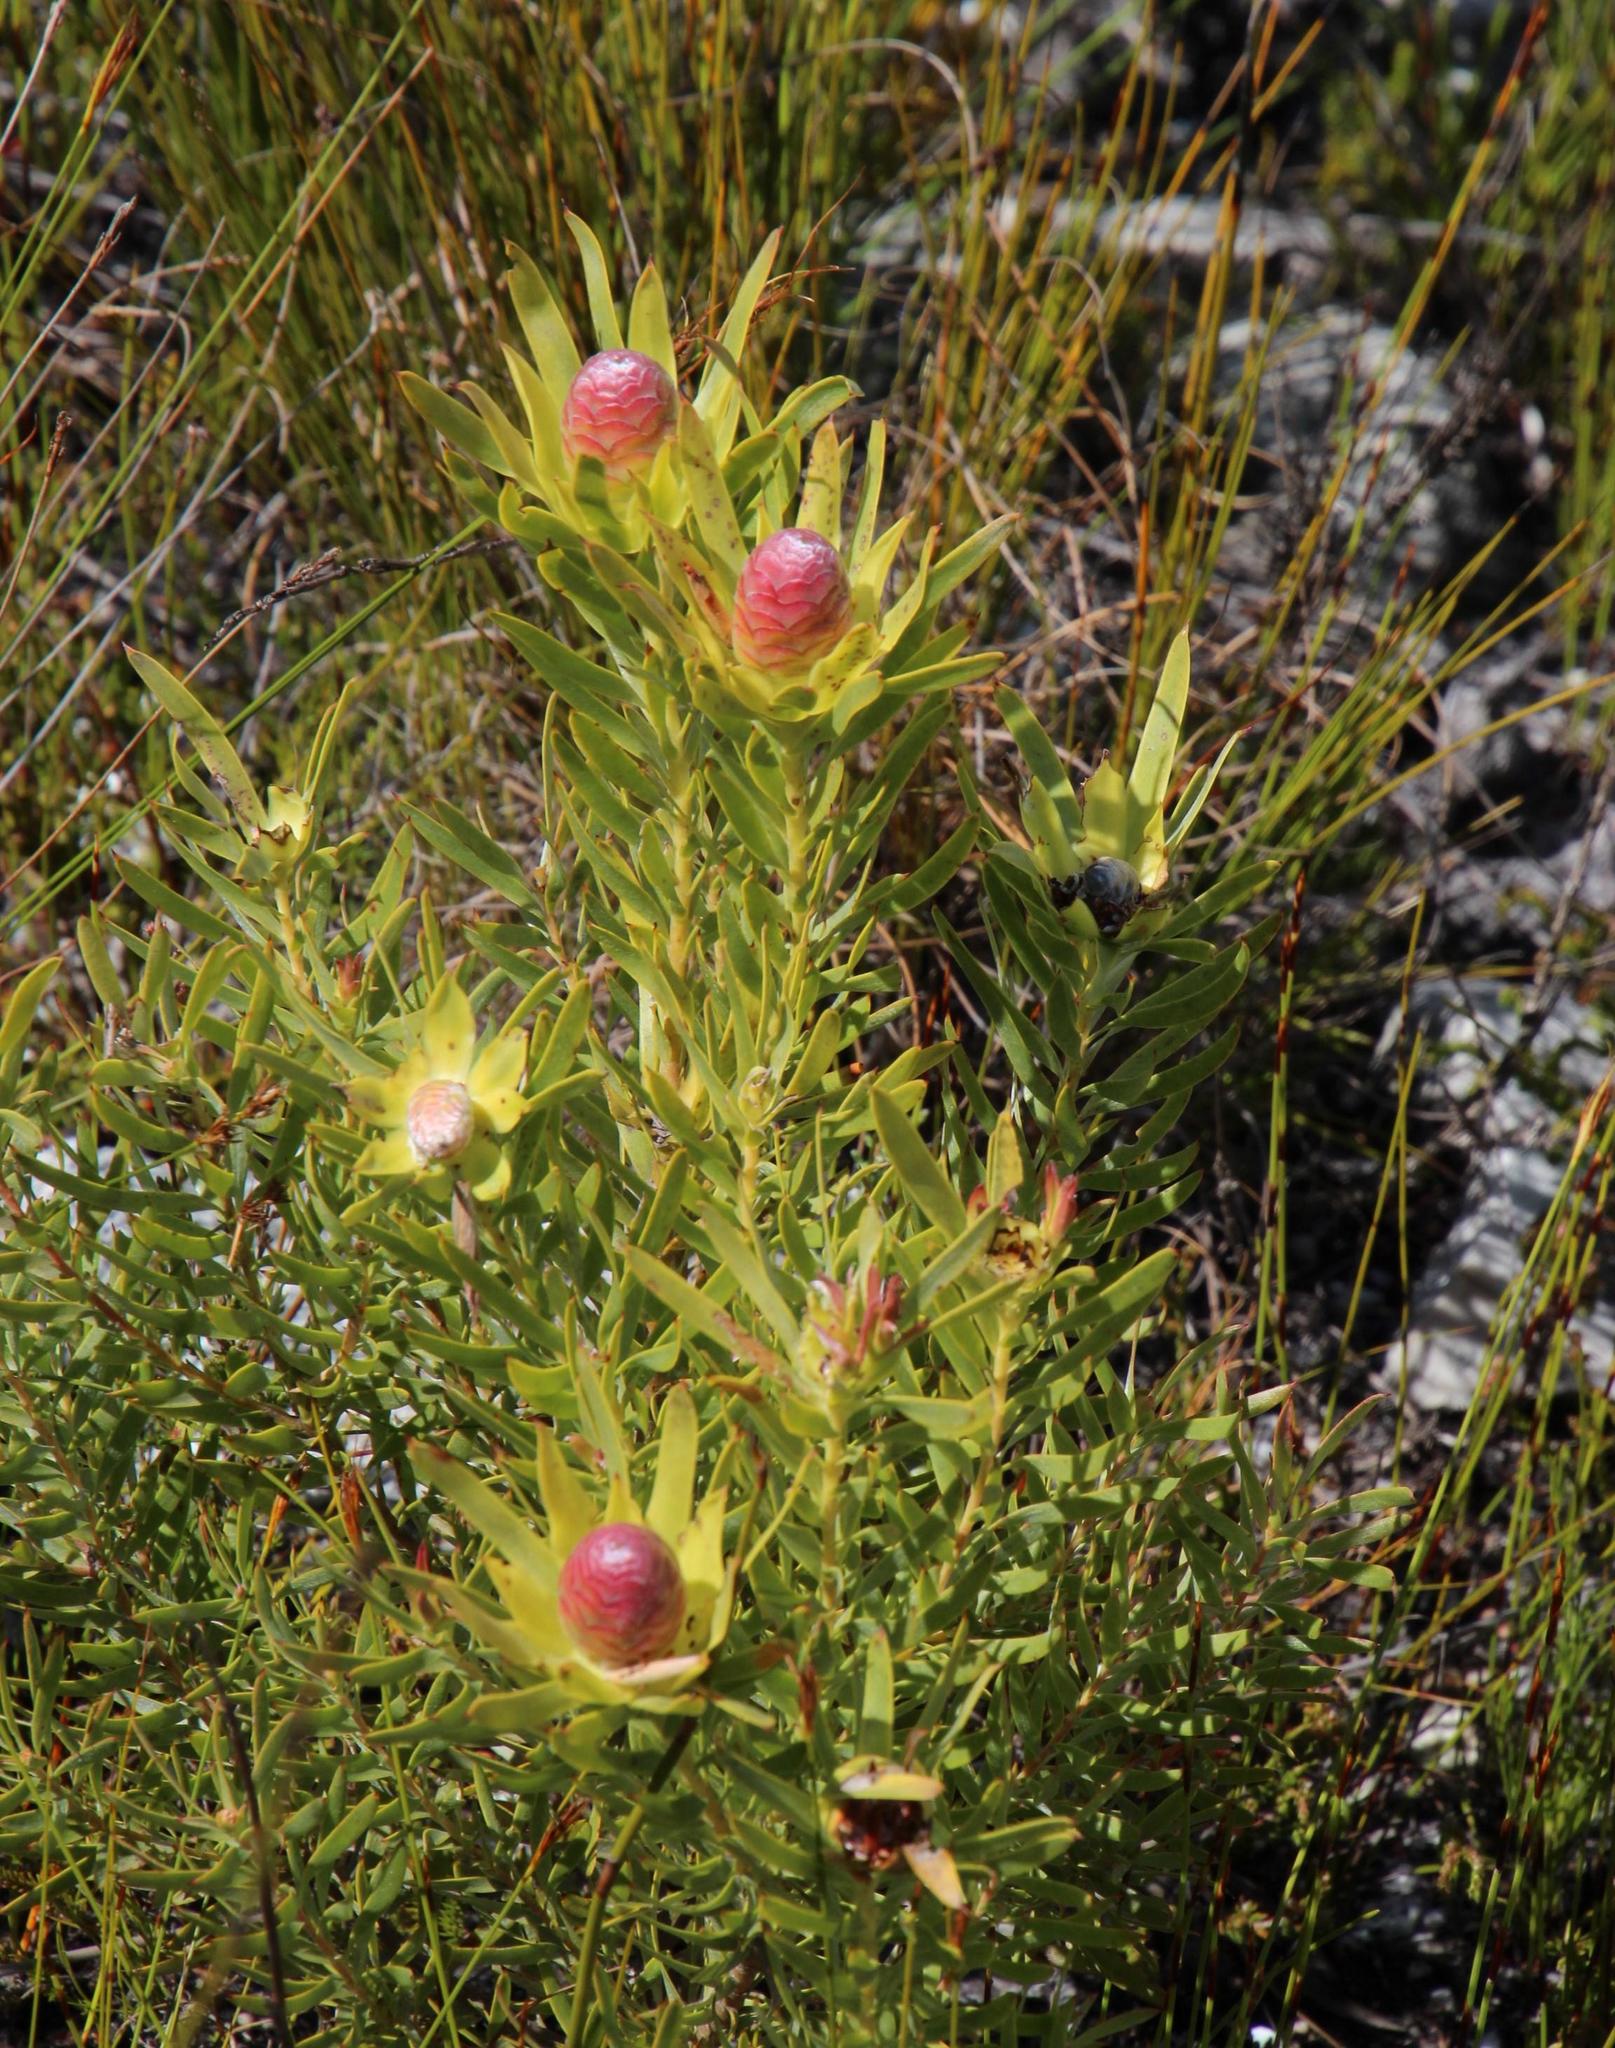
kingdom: Plantae
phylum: Tracheophyta
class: Magnoliopsida
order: Proteales
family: Proteaceae
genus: Leucadendron
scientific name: Leucadendron xanthoconus
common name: Sickle-leaf conebush
